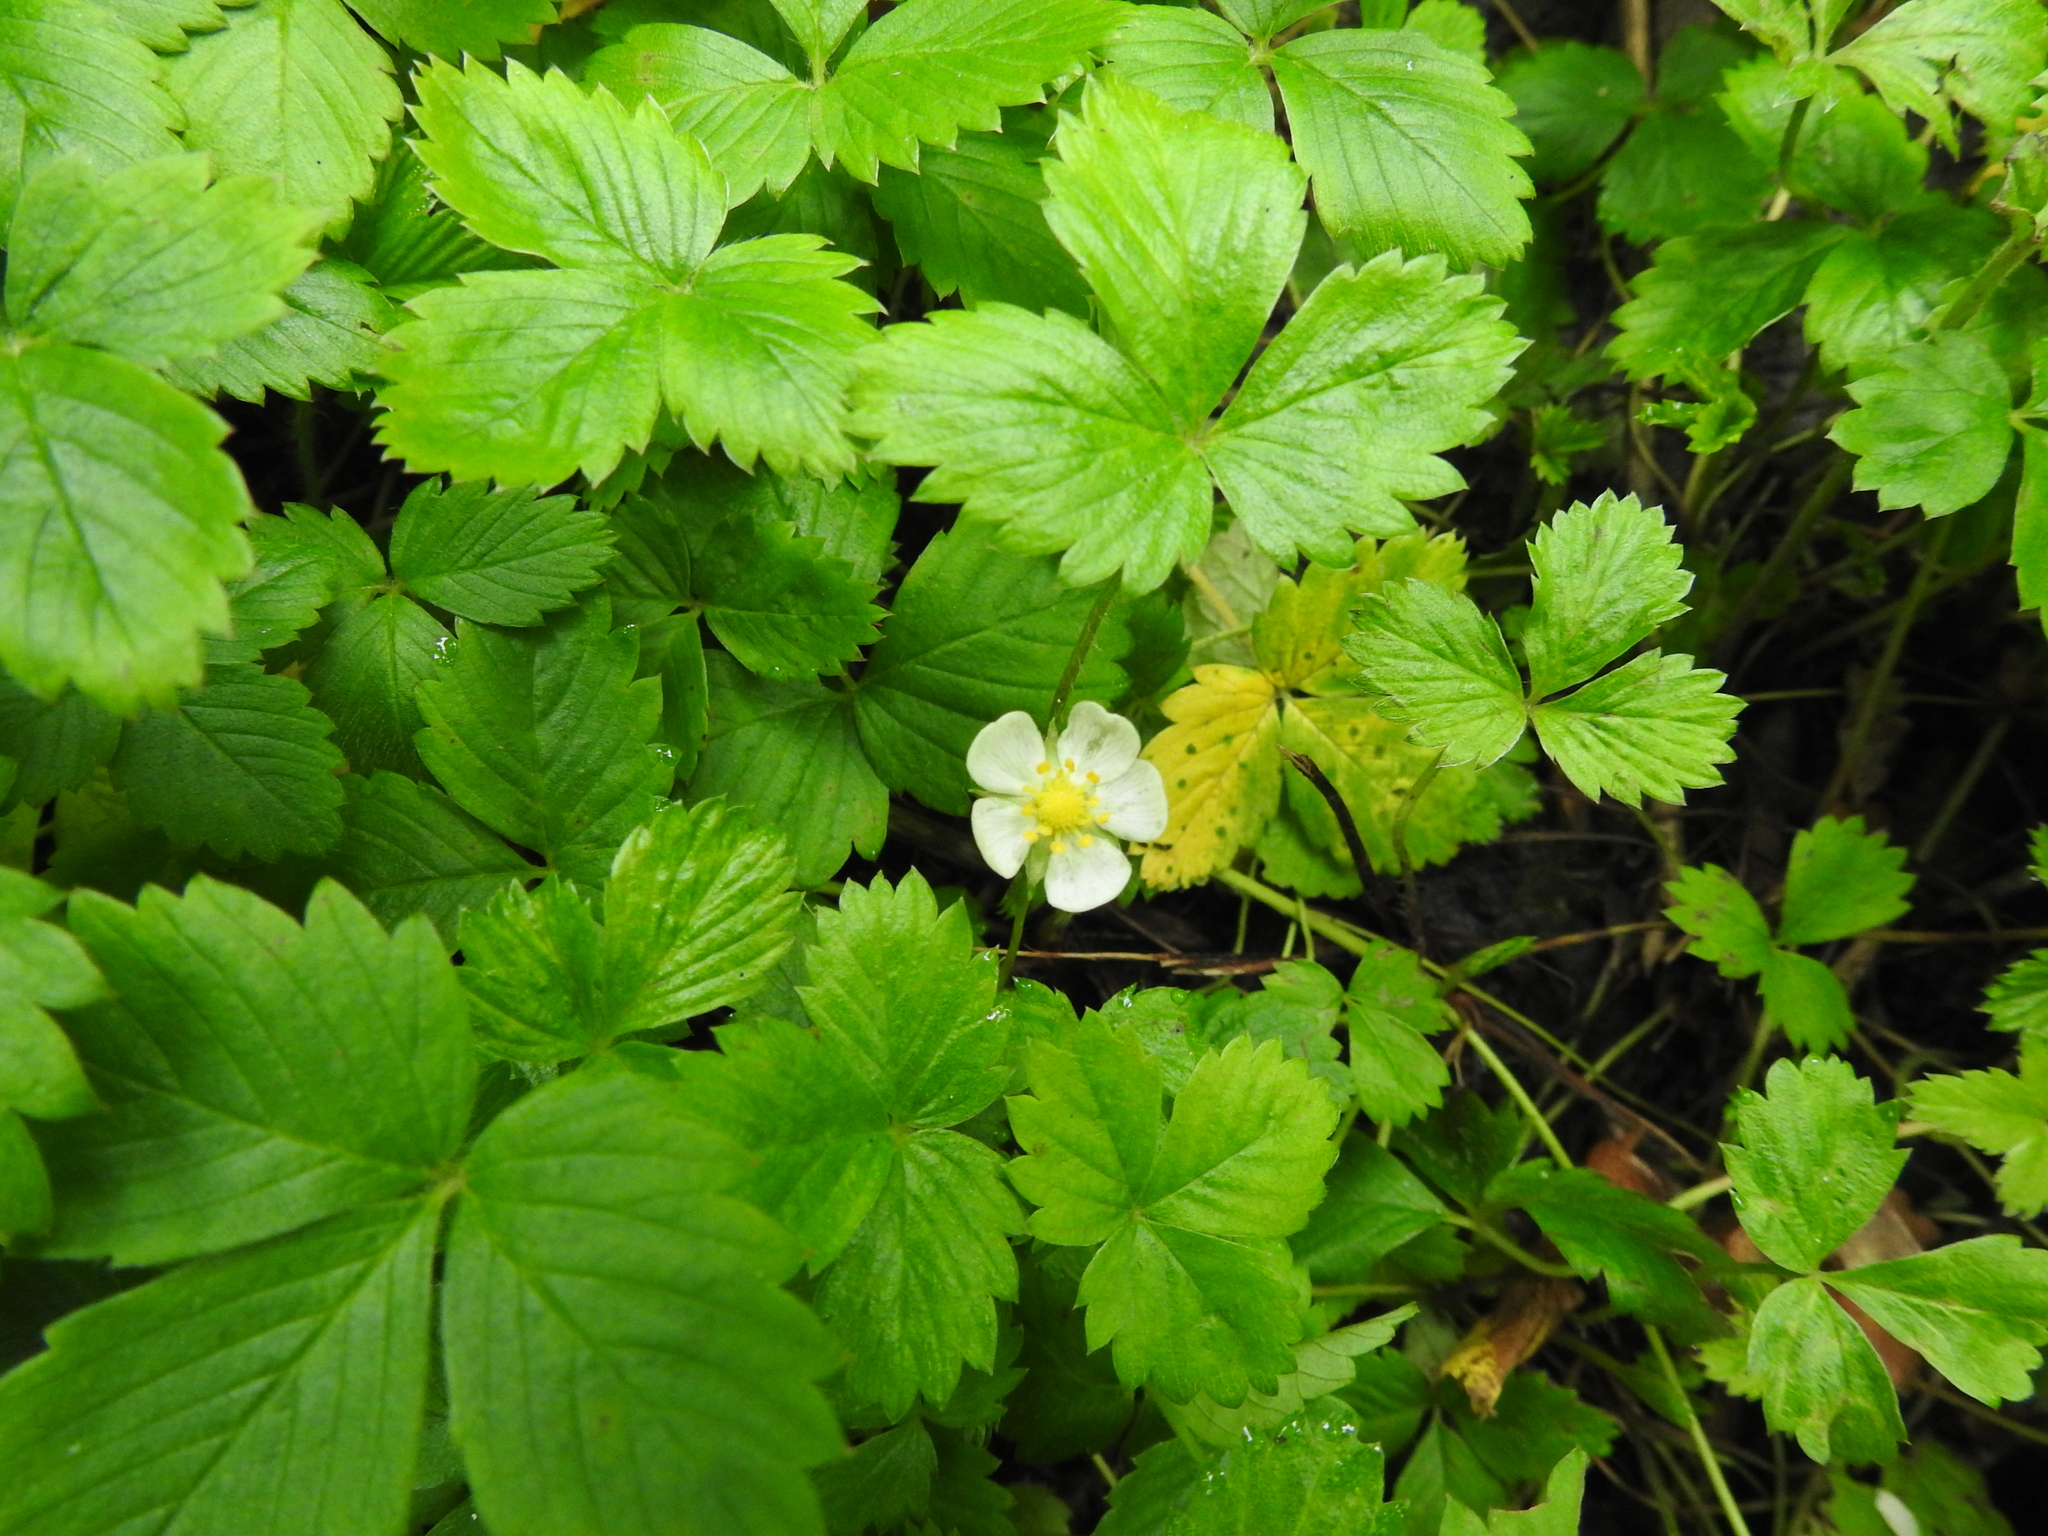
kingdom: Plantae
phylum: Tracheophyta
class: Magnoliopsida
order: Rosales
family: Rosaceae
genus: Fragaria
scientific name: Fragaria vesca
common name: Wild strawberry
